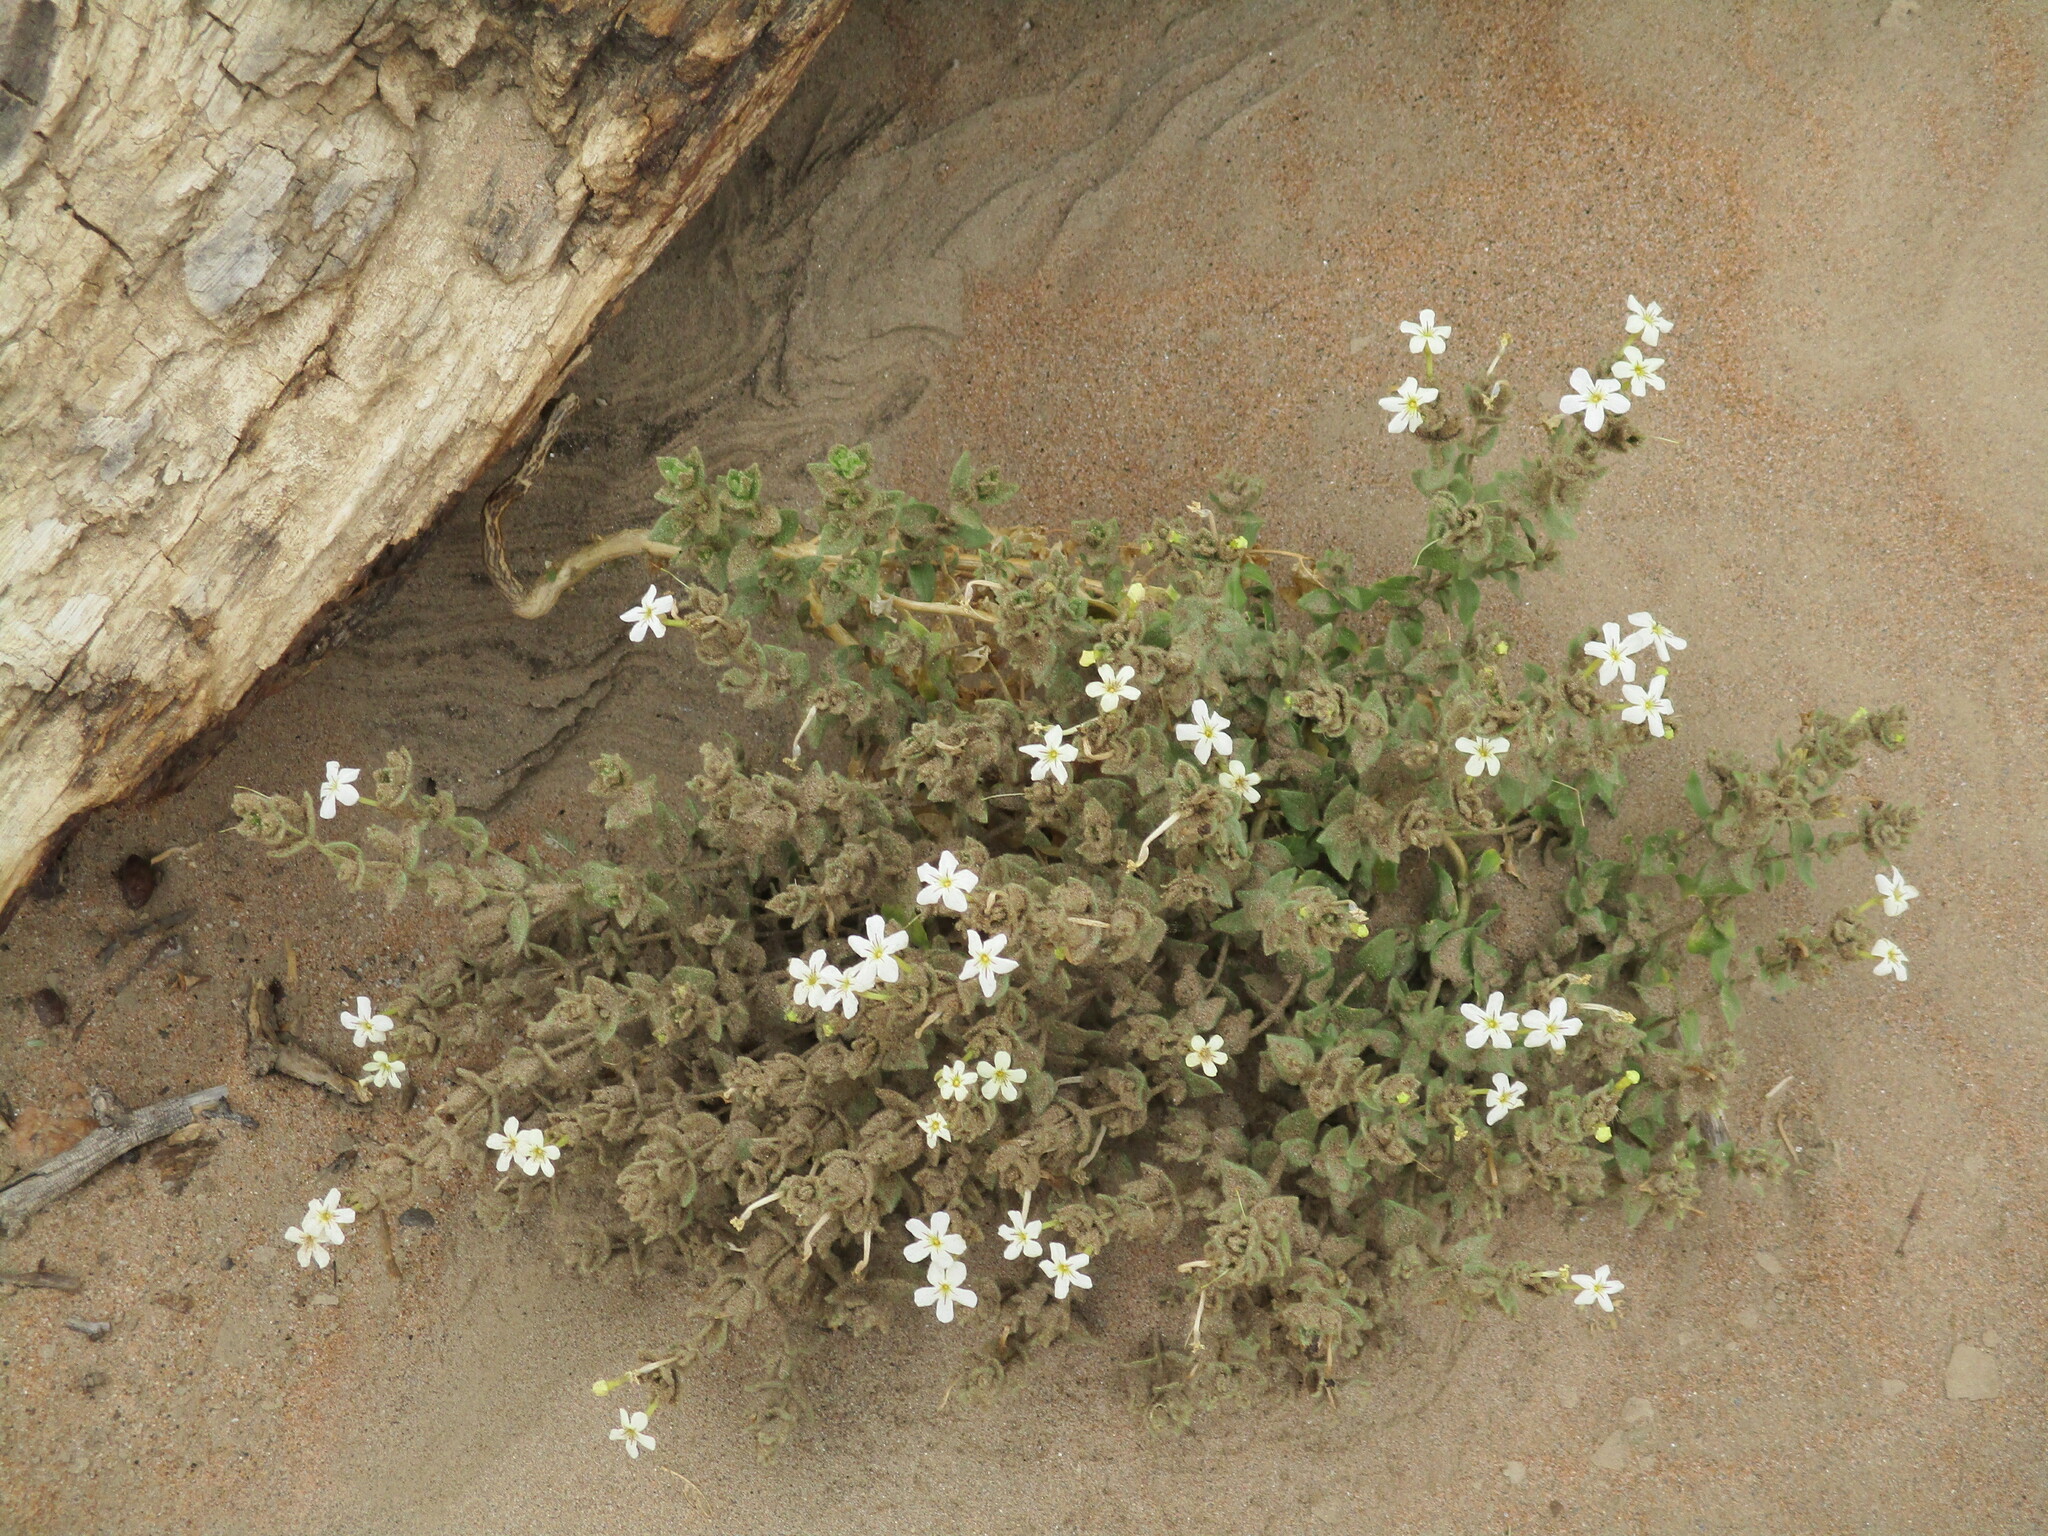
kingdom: Plantae
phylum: Tracheophyta
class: Magnoliopsida
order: Lamiales
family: Scrophulariaceae
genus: Jamesbrittenia
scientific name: Jamesbrittenia maxii
